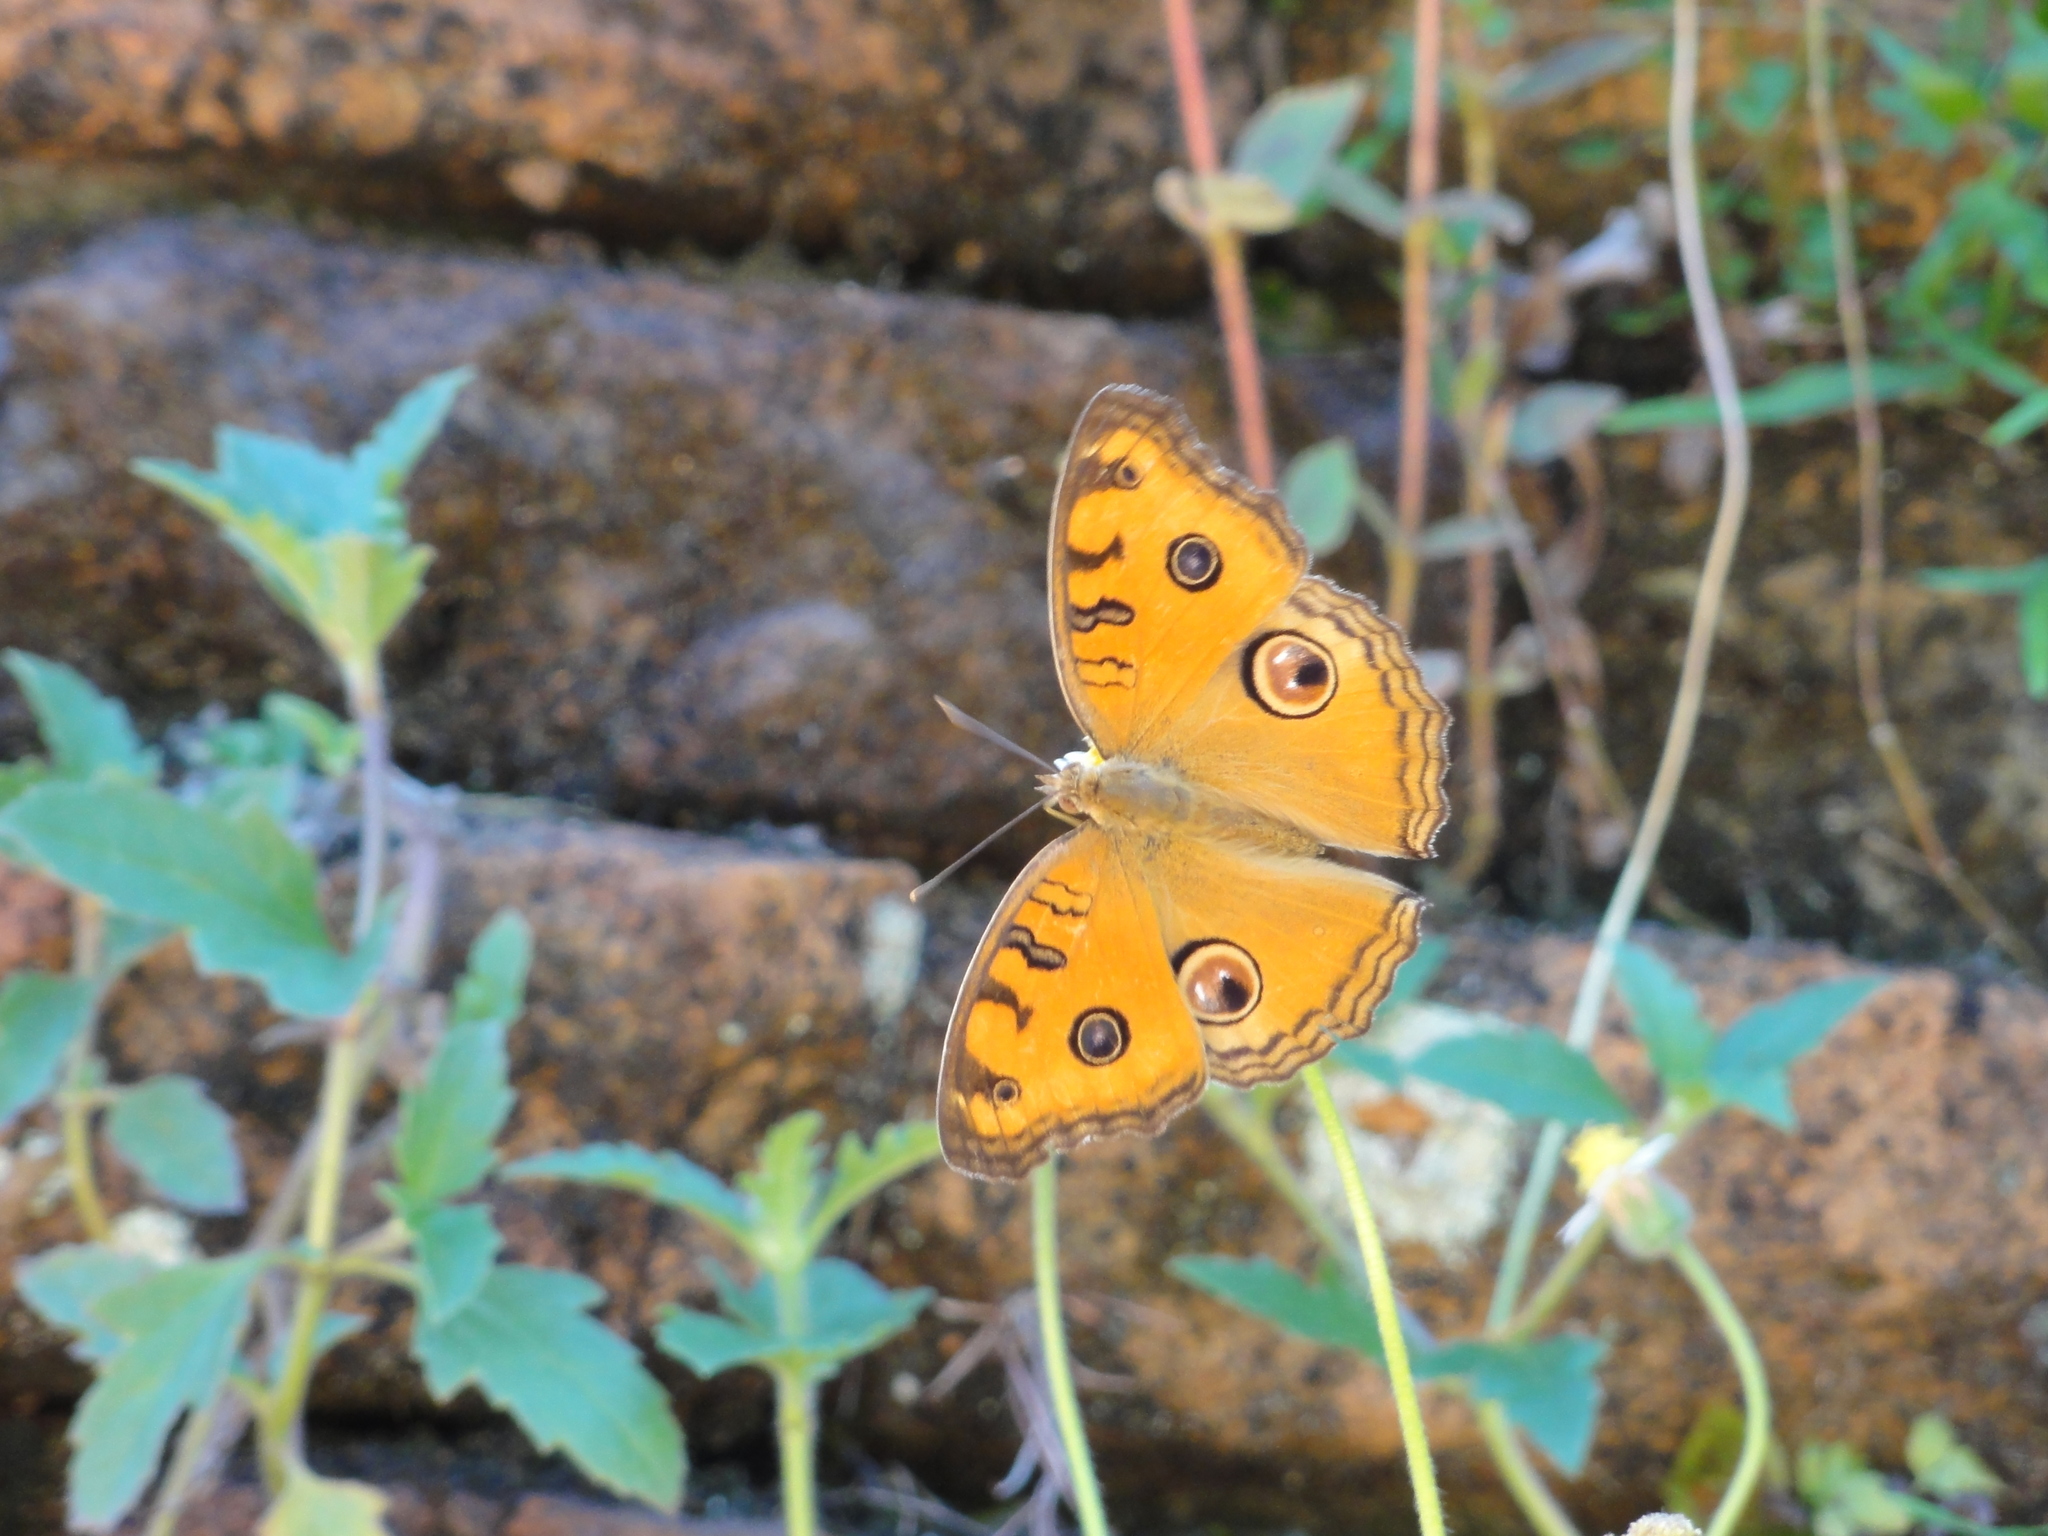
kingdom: Animalia
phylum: Arthropoda
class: Insecta
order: Lepidoptera
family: Nymphalidae
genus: Junonia
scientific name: Junonia almana
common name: Peacock pansy
